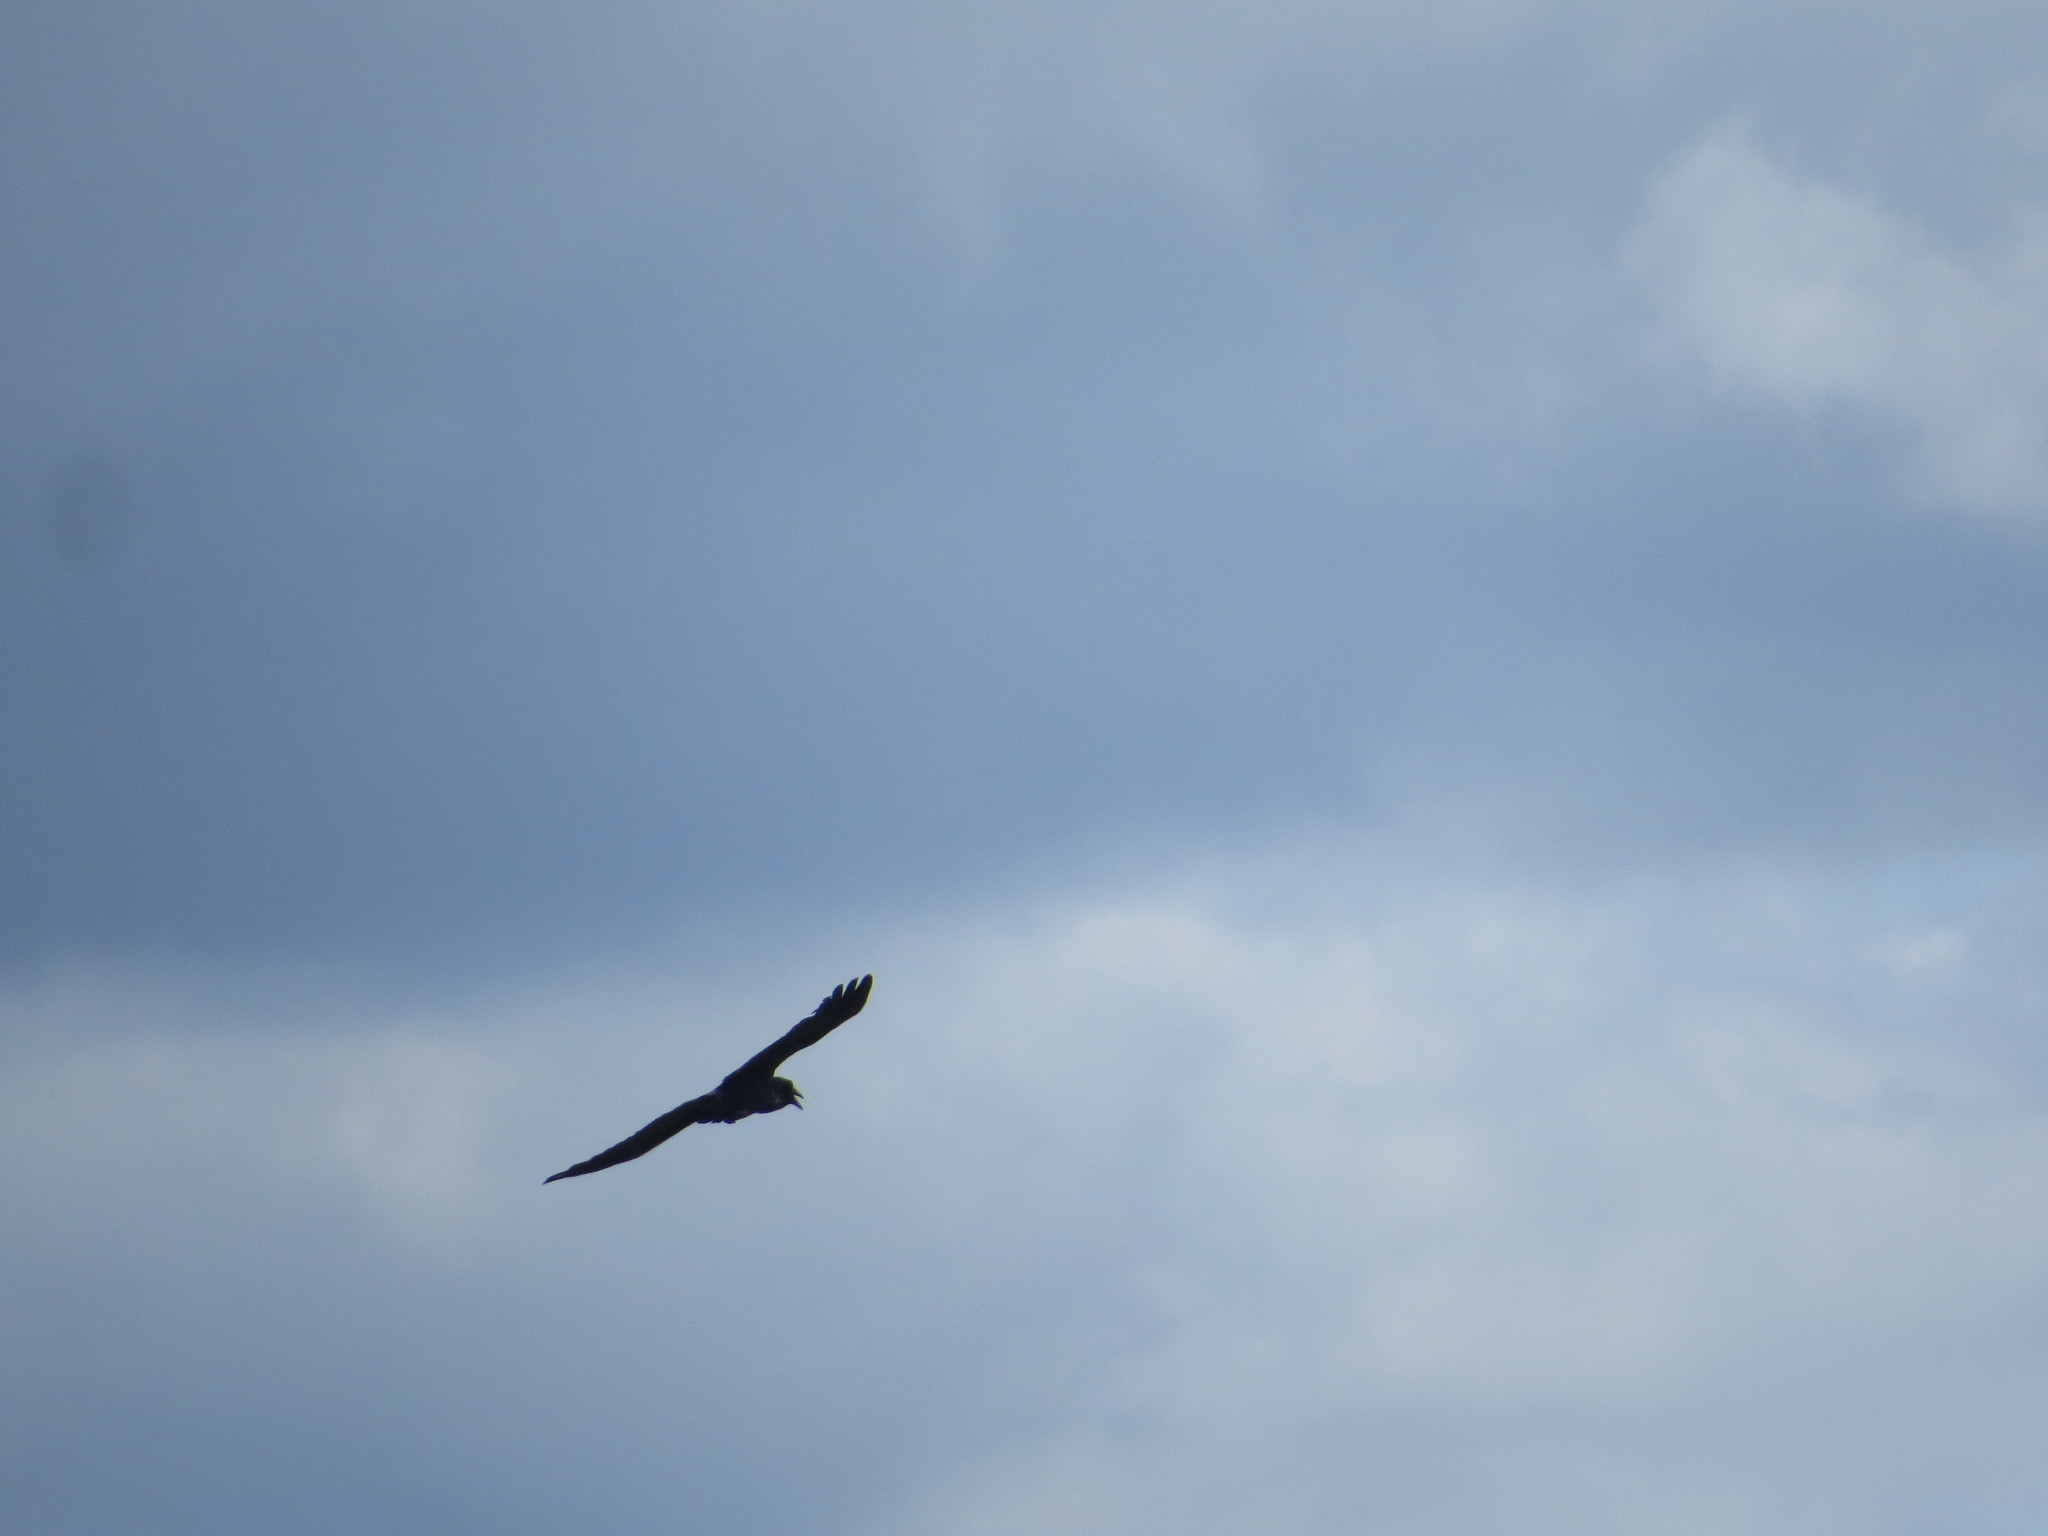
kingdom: Animalia
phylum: Chordata
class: Aves
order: Passeriformes
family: Corvidae
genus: Corvus
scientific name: Corvus corax
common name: Common raven
